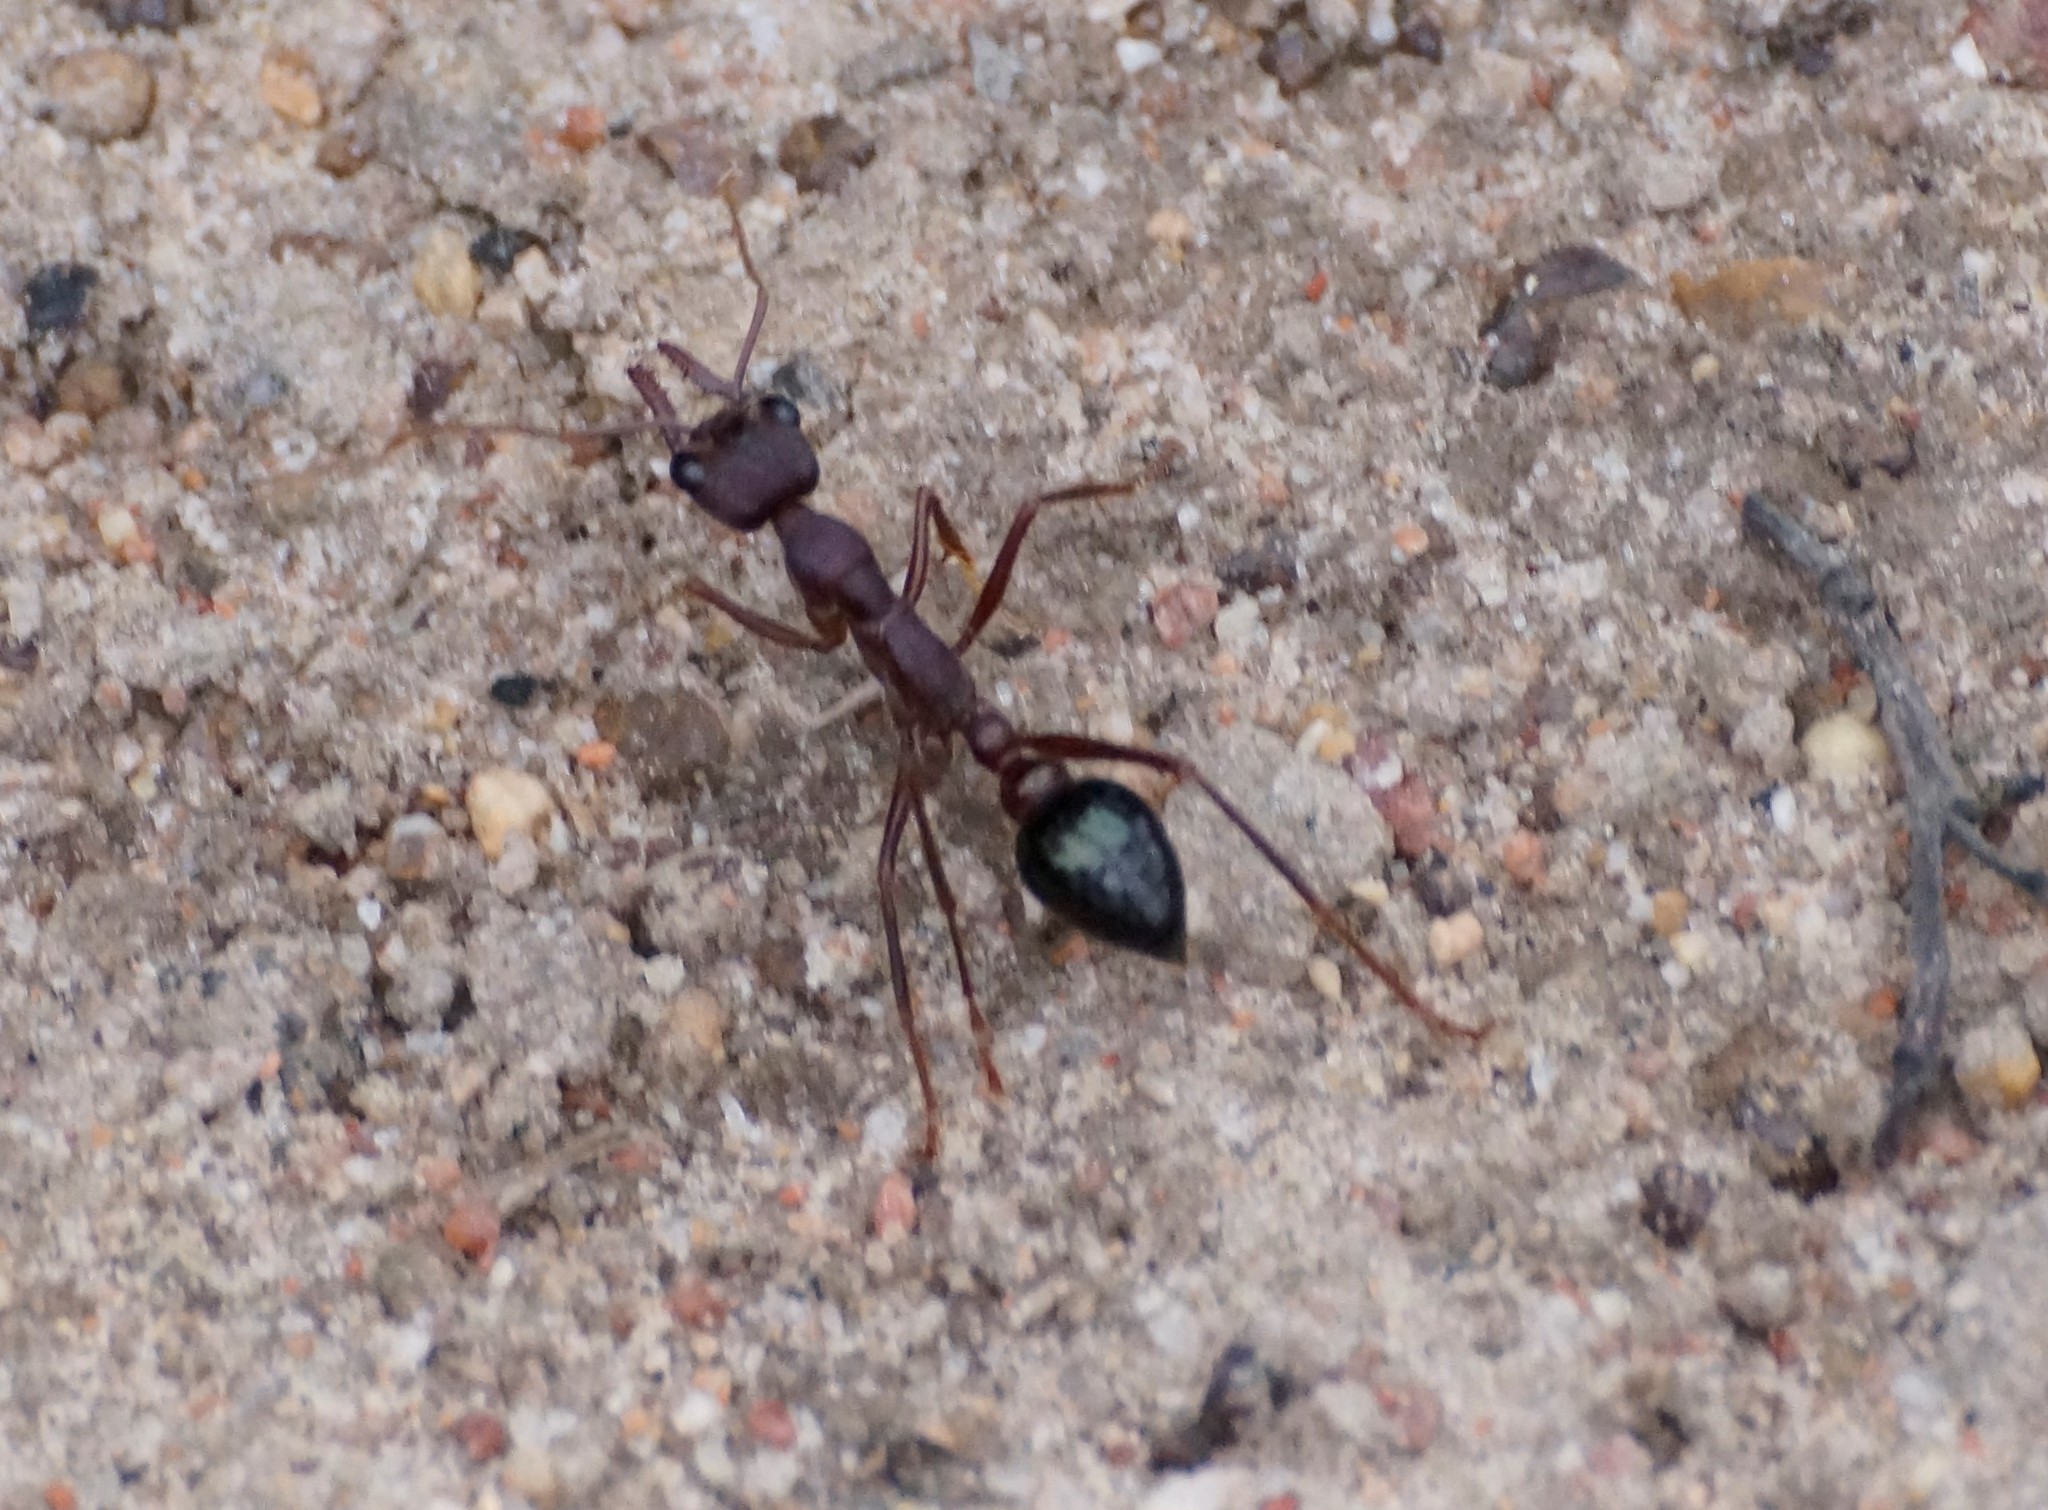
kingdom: Animalia
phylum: Arthropoda
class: Insecta
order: Hymenoptera
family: Formicidae
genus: Myrmecia
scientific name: Myrmecia forficata
